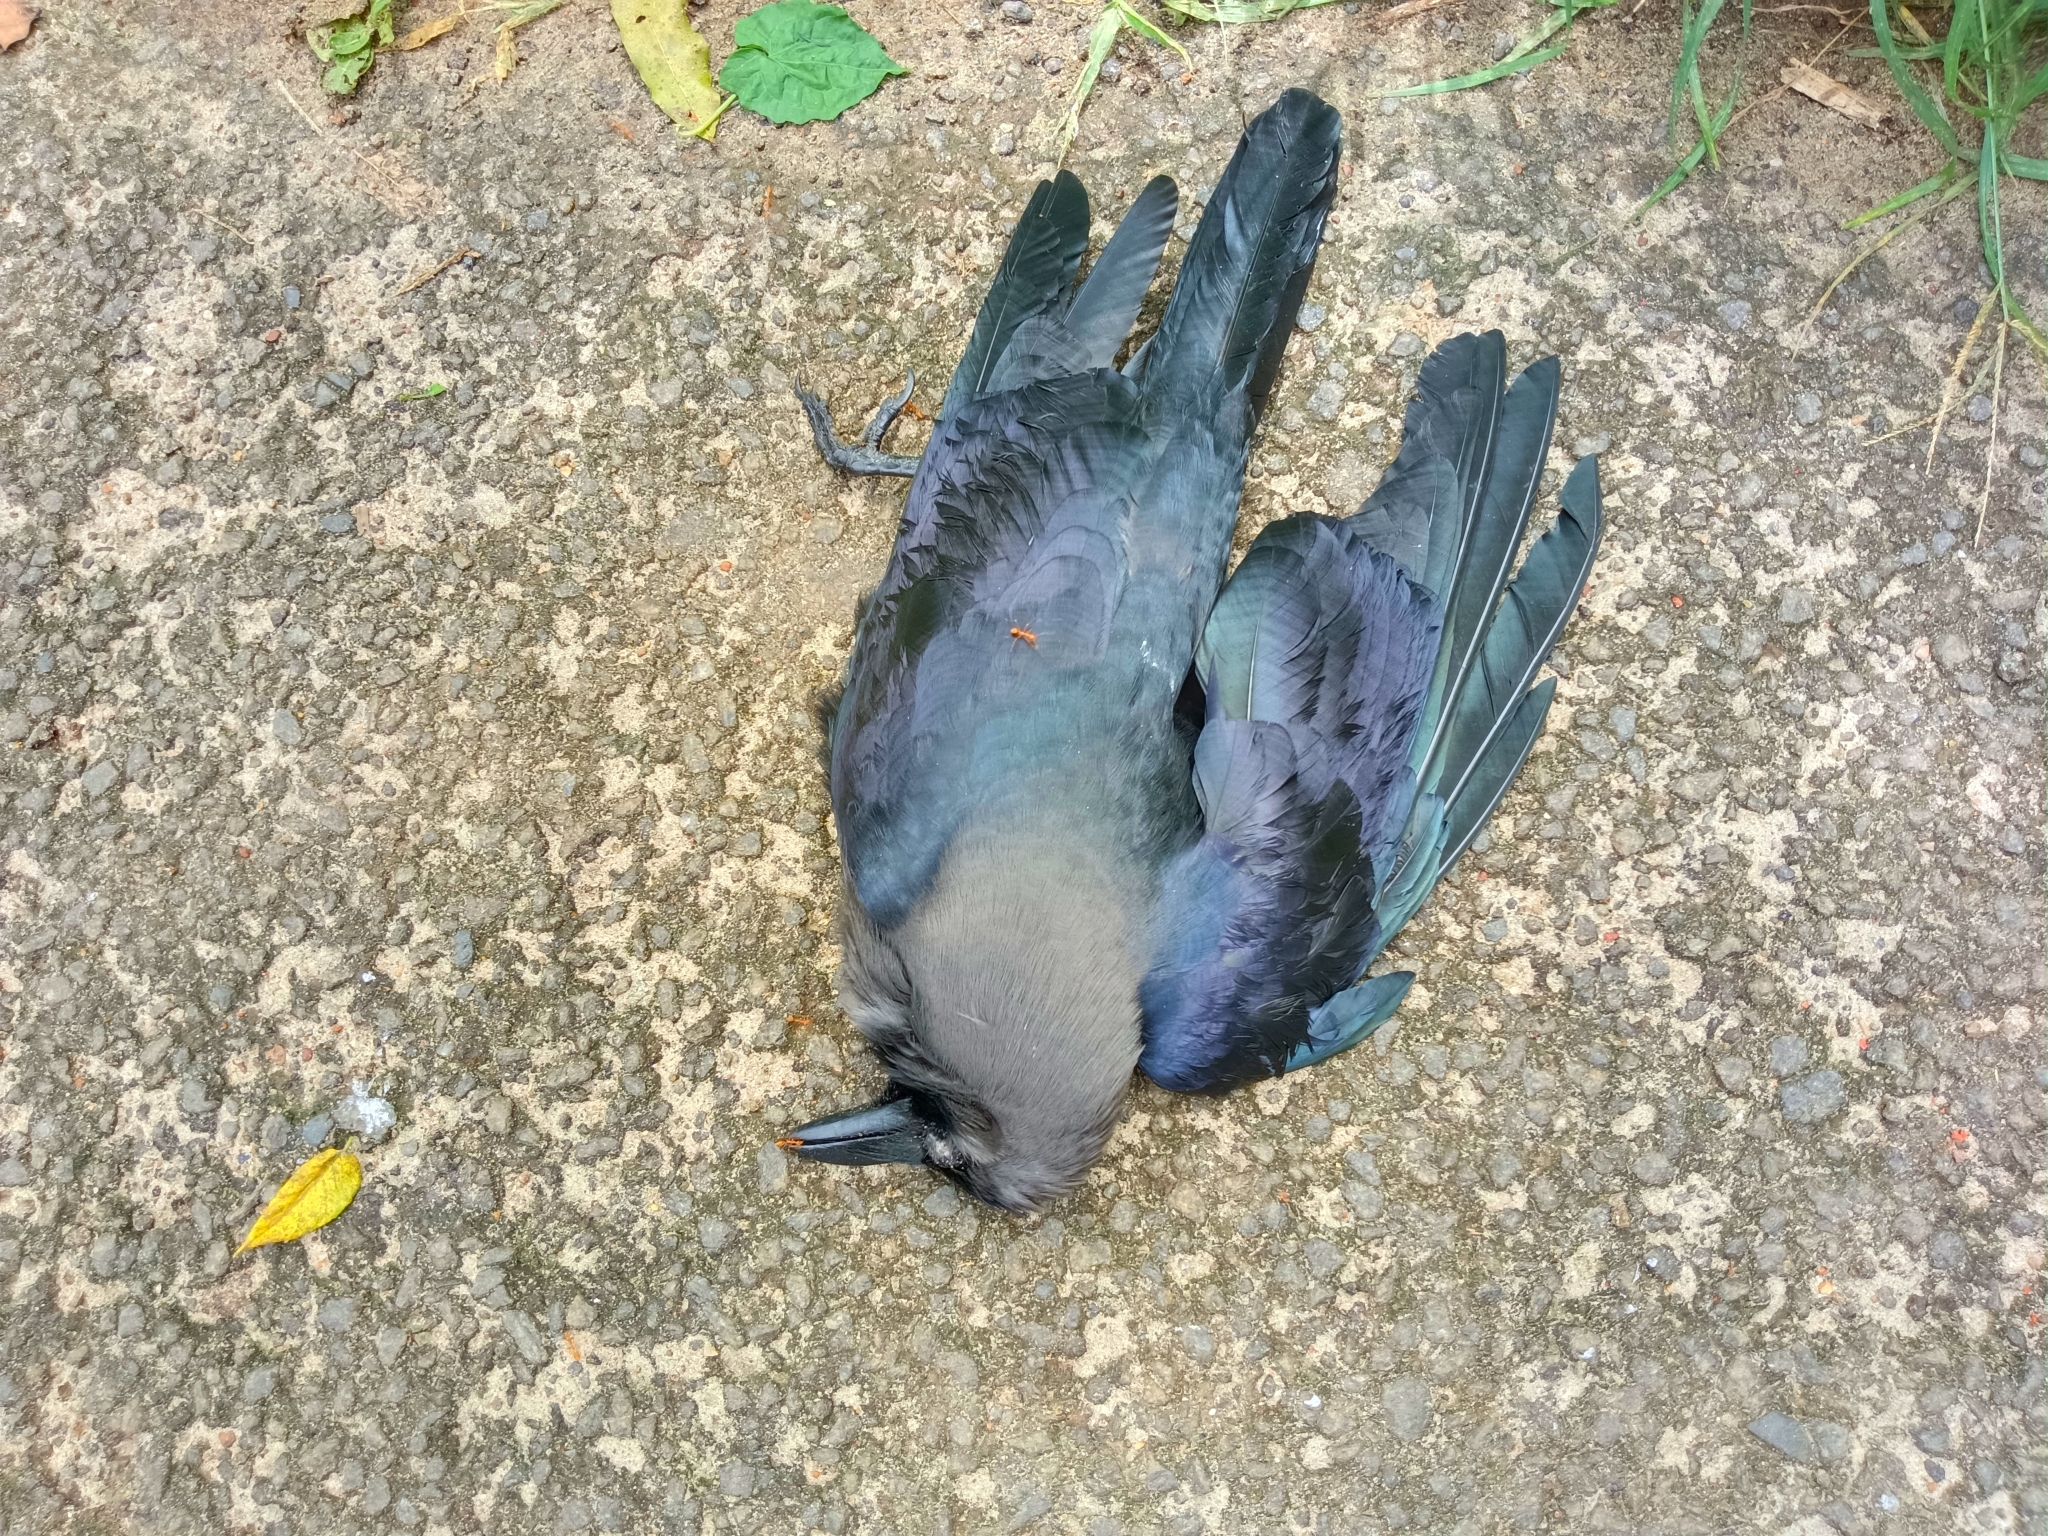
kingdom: Animalia
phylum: Chordata
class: Aves
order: Passeriformes
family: Corvidae
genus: Corvus
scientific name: Corvus splendens
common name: House crow
